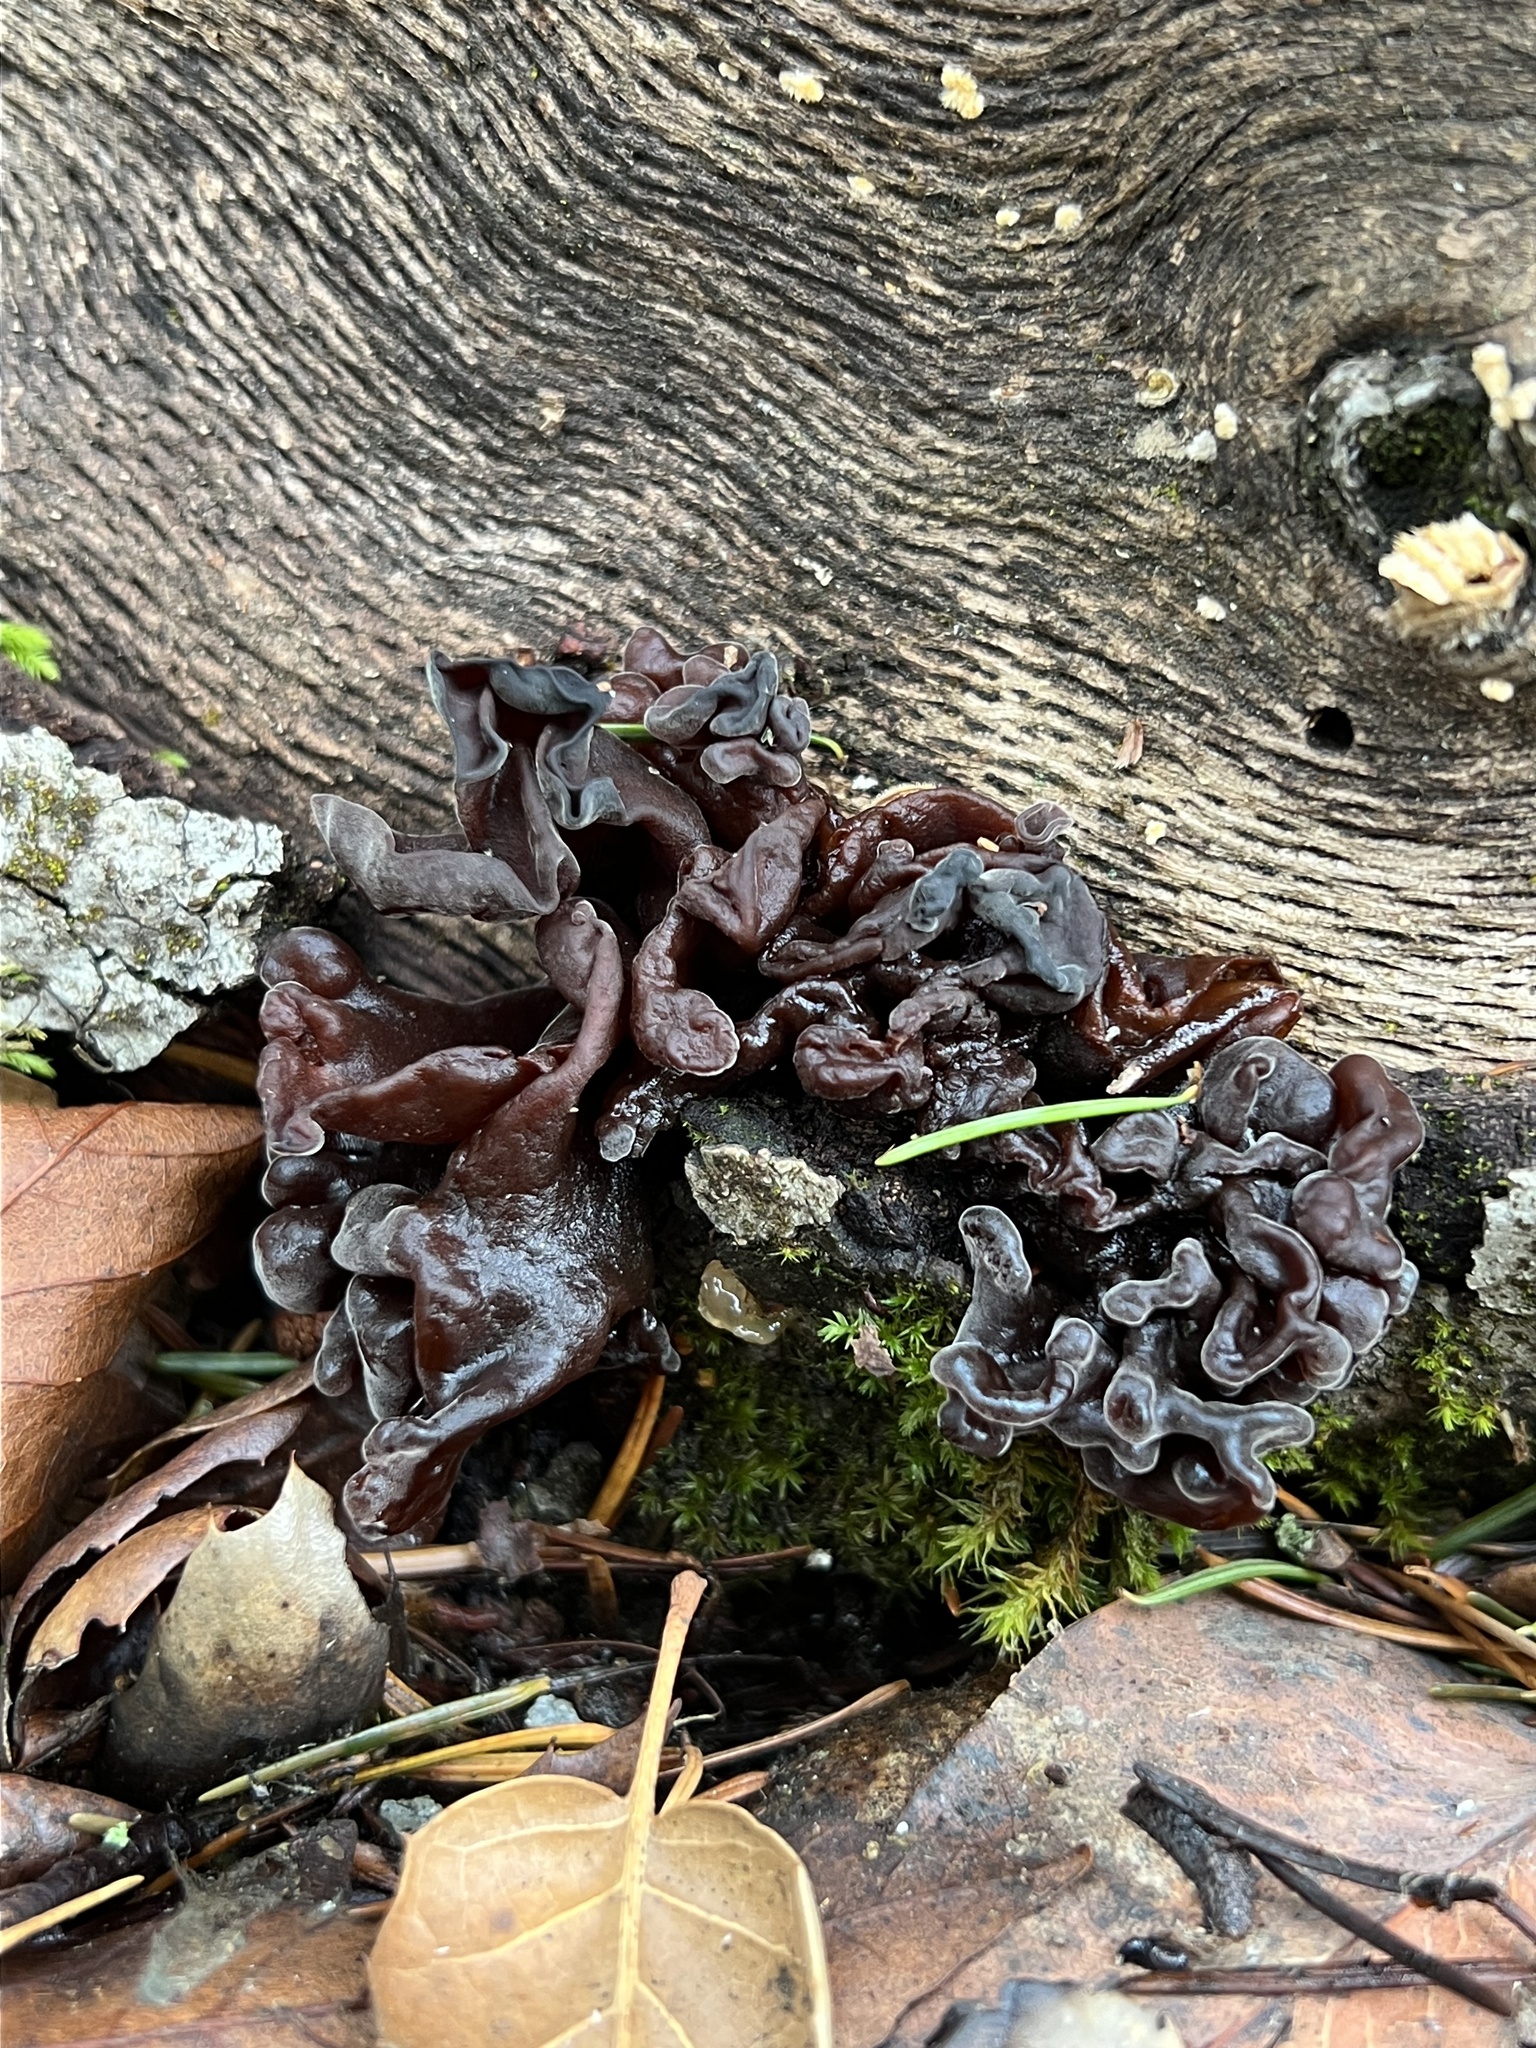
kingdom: Fungi
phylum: Basidiomycota
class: Tremellomycetes
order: Tremellales
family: Tremellaceae
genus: Phaeotremella
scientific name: Phaeotremella frondosa
